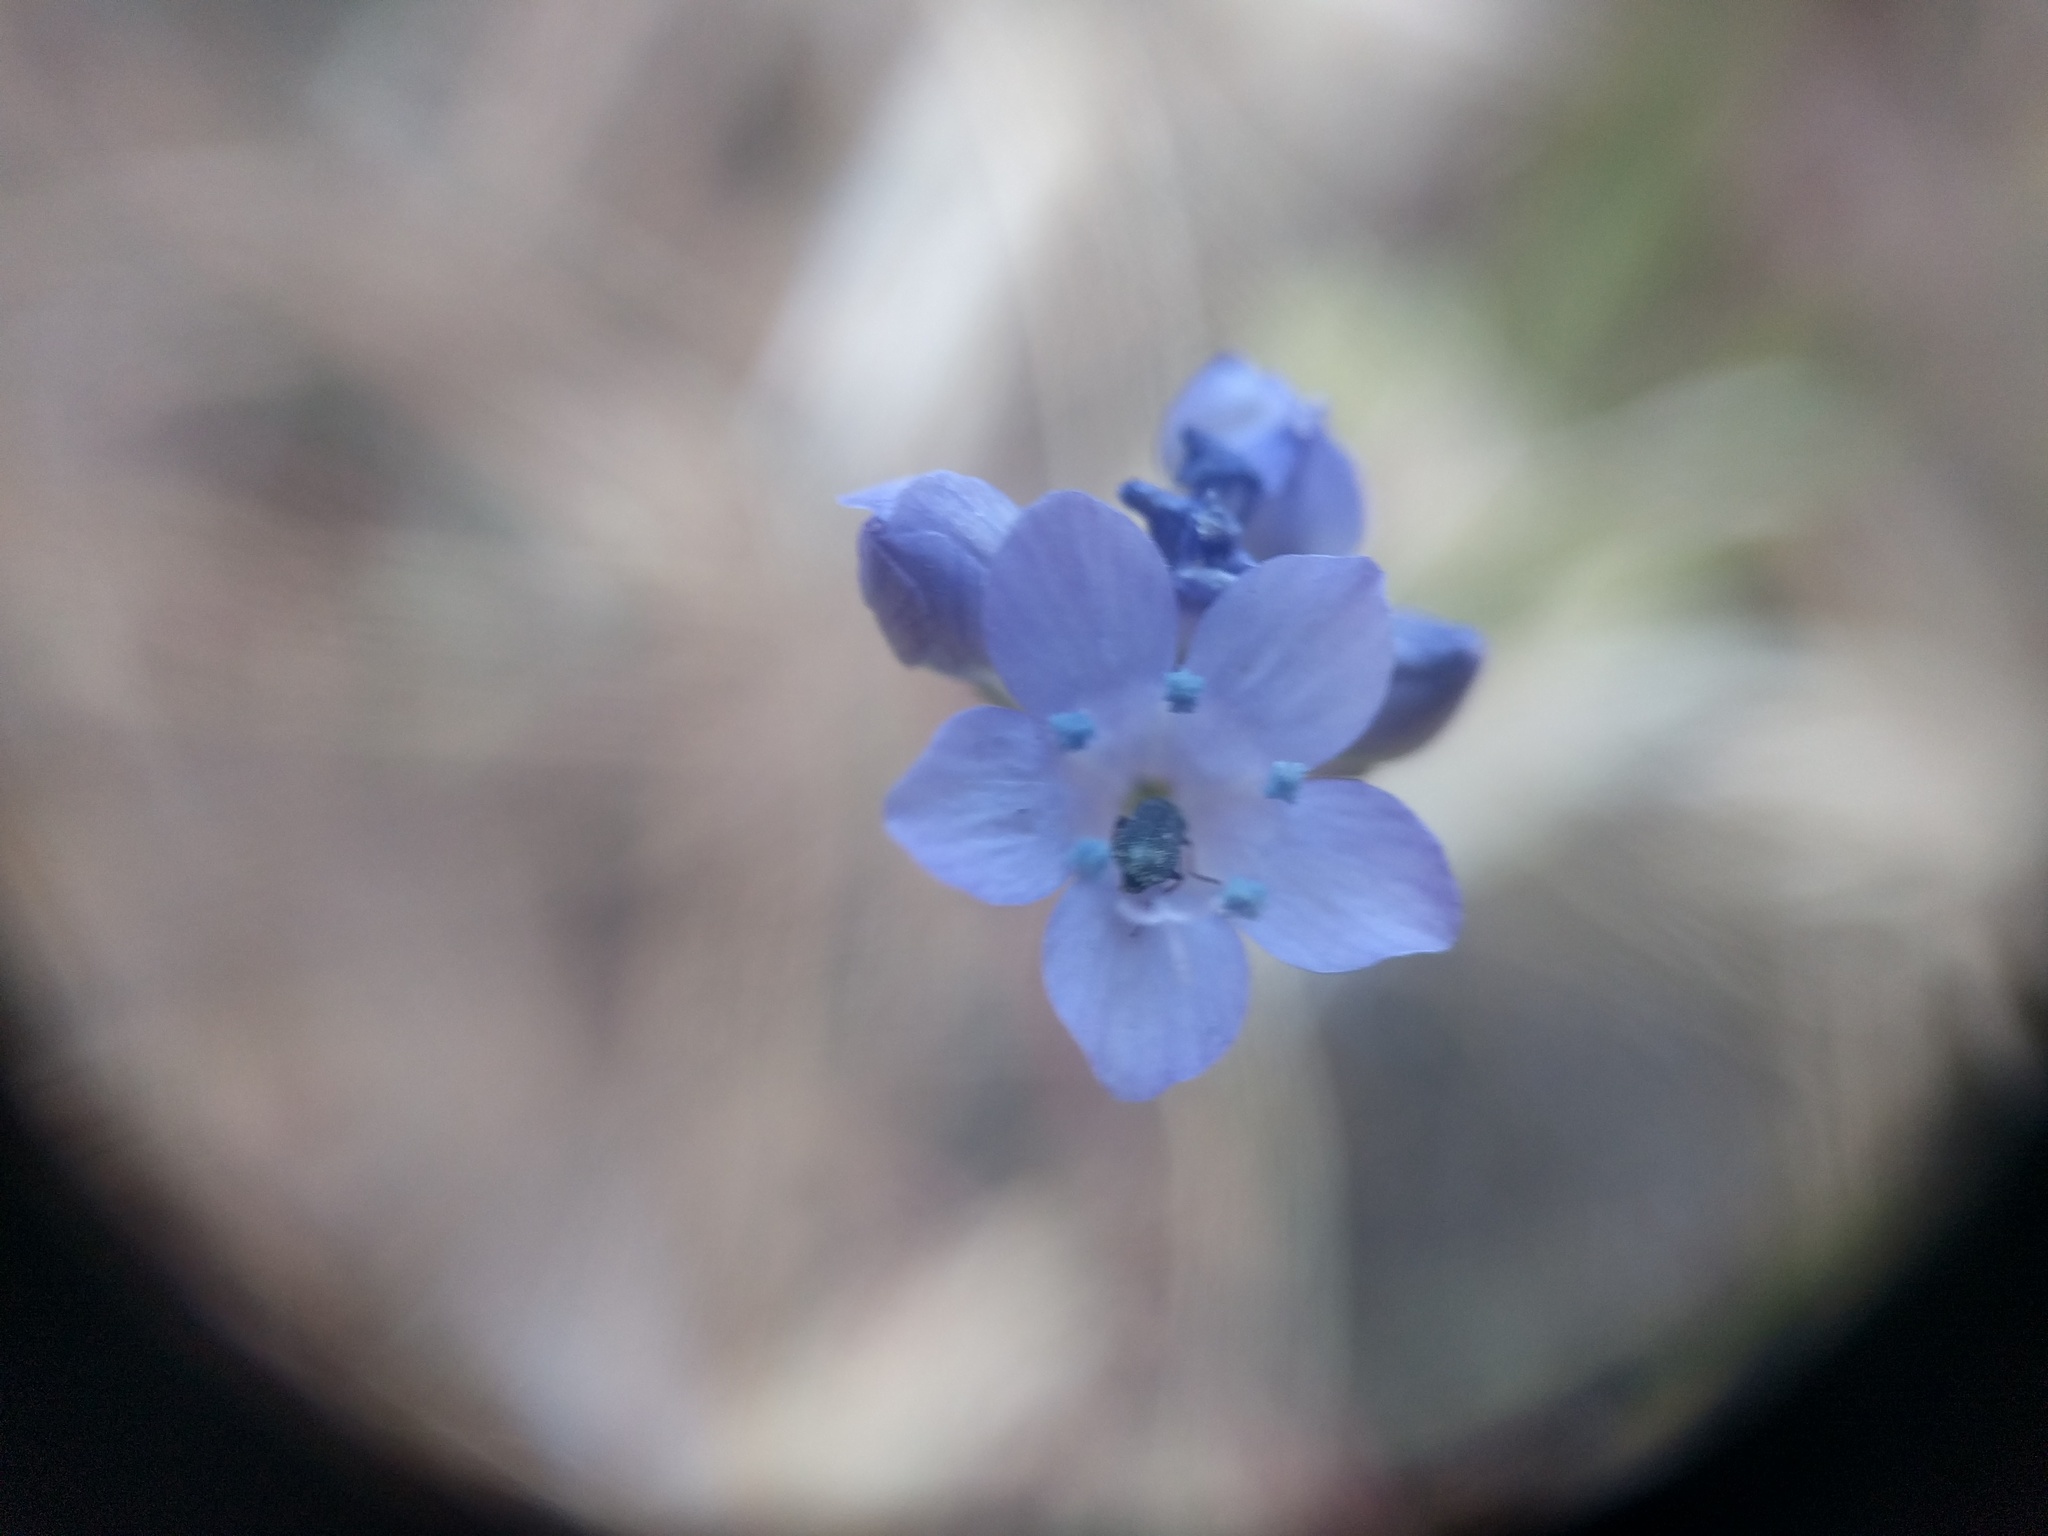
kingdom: Plantae
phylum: Tracheophyta
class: Magnoliopsida
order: Ericales
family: Polemoniaceae
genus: Gilia
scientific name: Gilia achilleifolia
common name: California gily-flower
